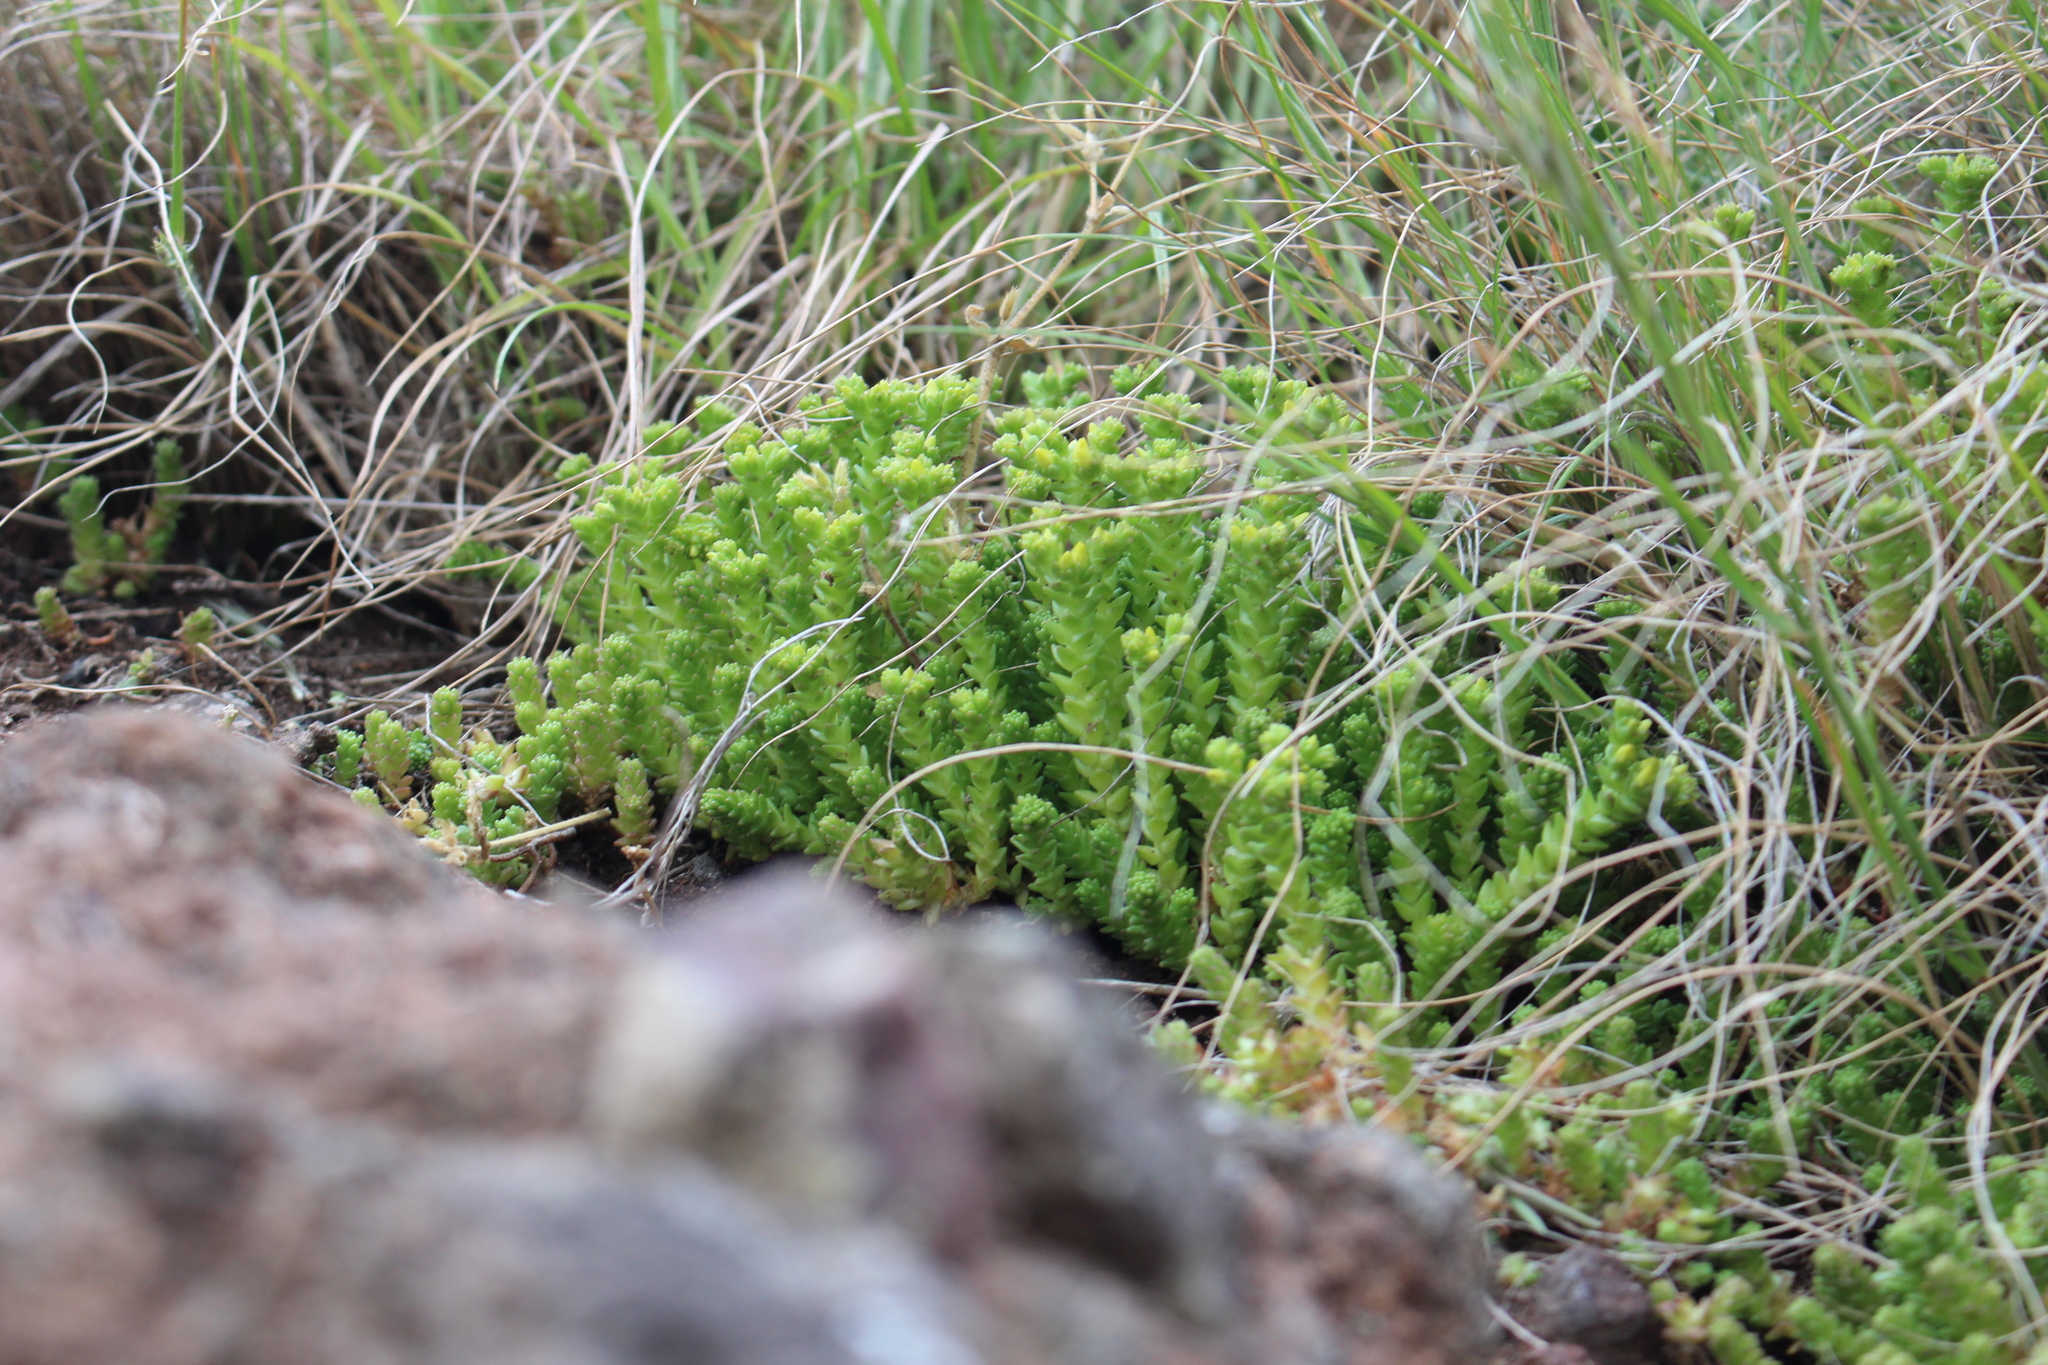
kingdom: Plantae
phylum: Tracheophyta
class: Magnoliopsida
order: Saxifragales
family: Crassulaceae
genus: Sedum
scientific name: Sedum acre
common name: Biting stonecrop
